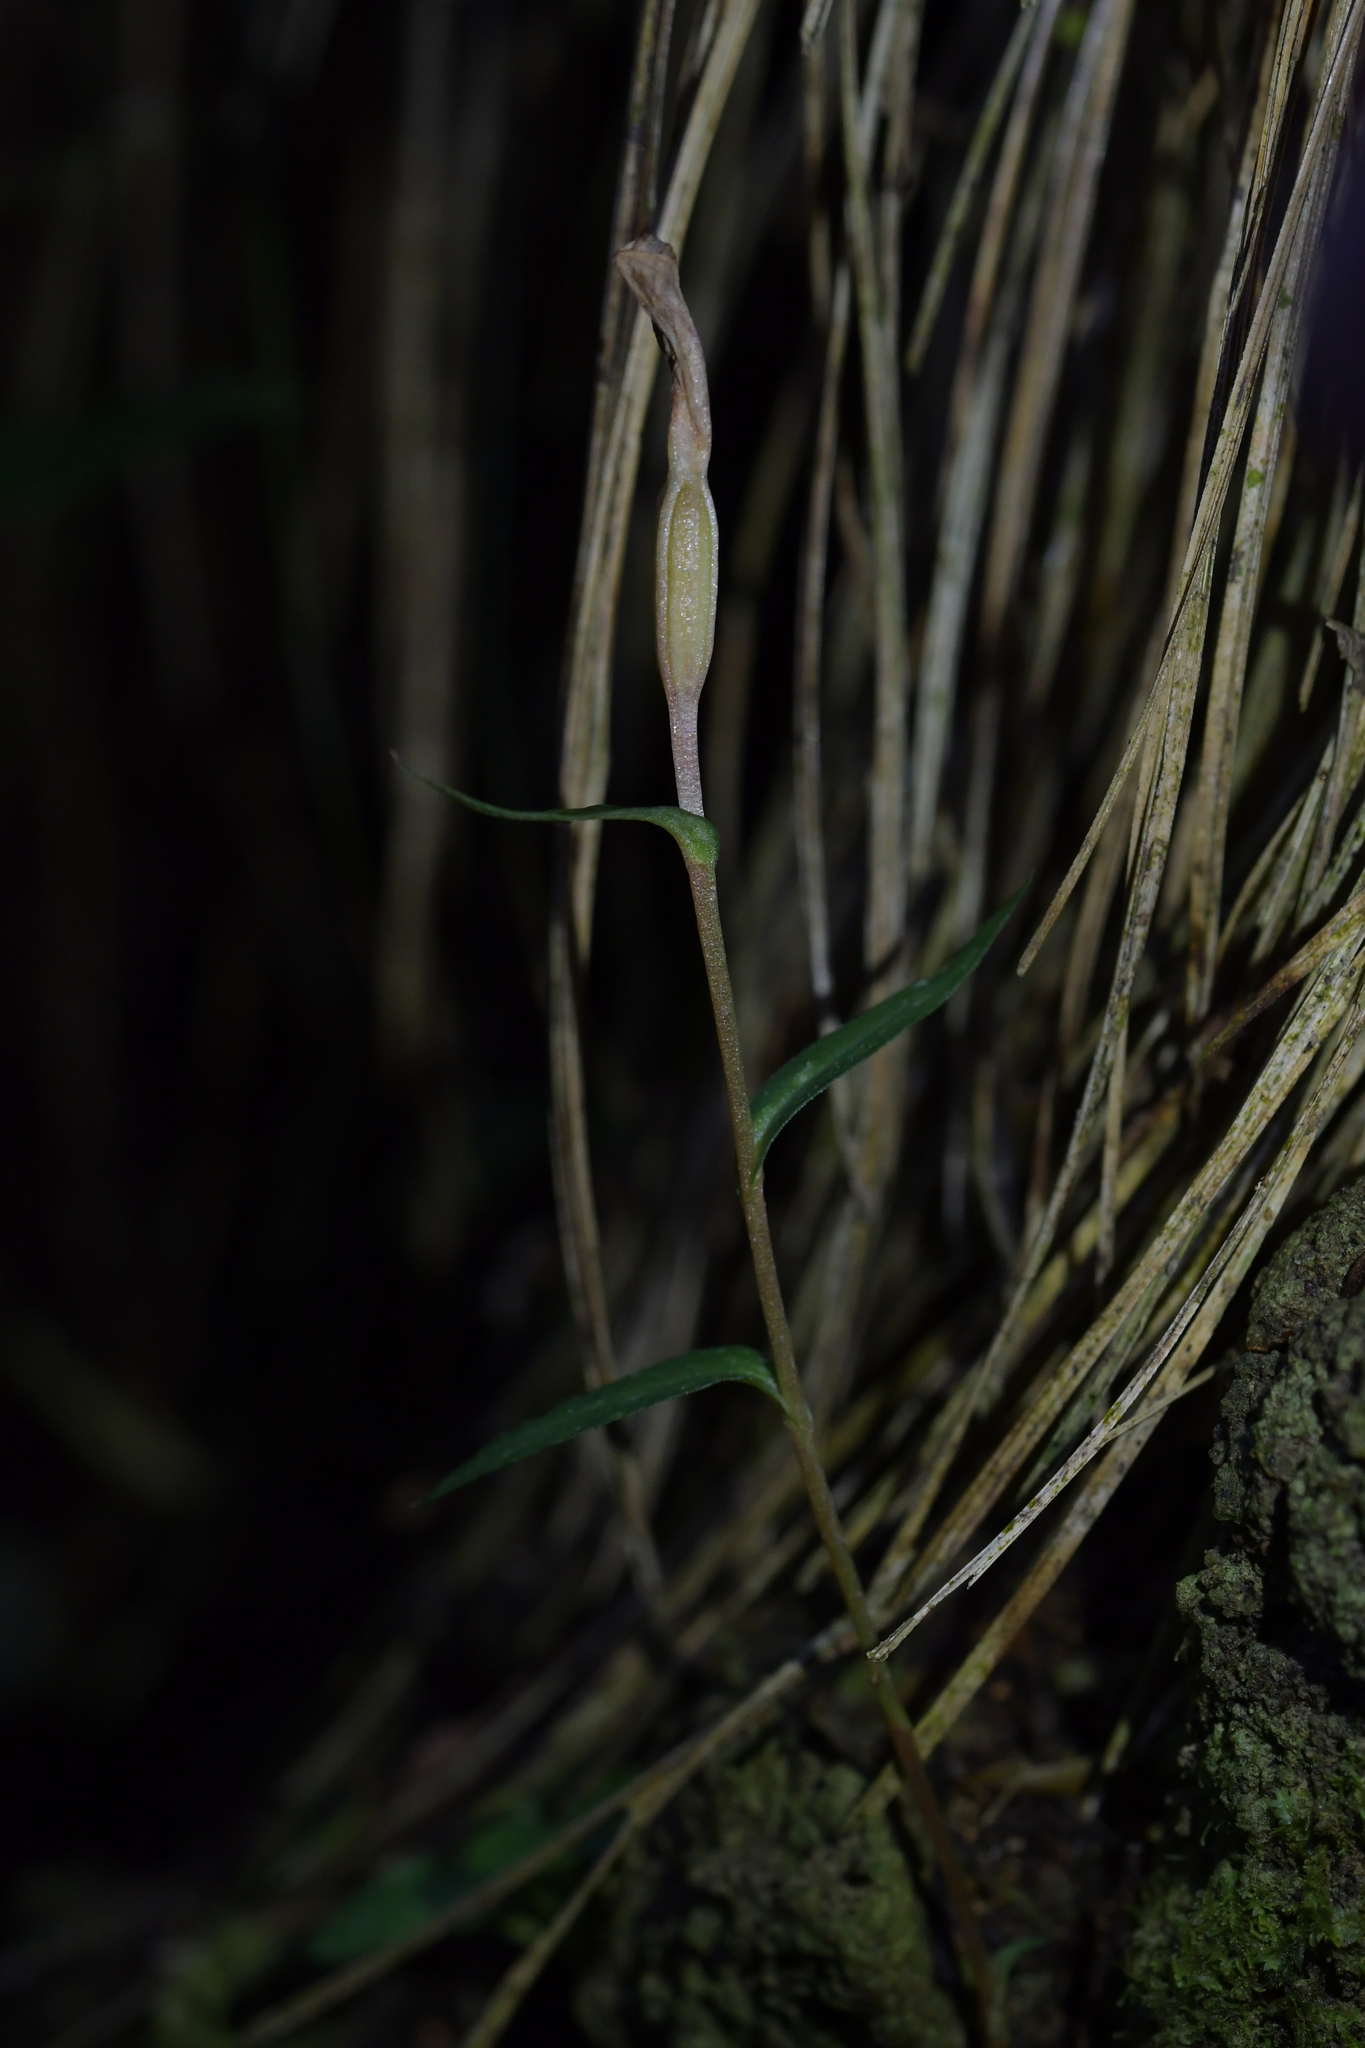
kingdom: Plantae
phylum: Tracheophyta
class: Liliopsida
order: Asparagales
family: Orchidaceae
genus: Pterostylis
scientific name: Pterostylis alobula
